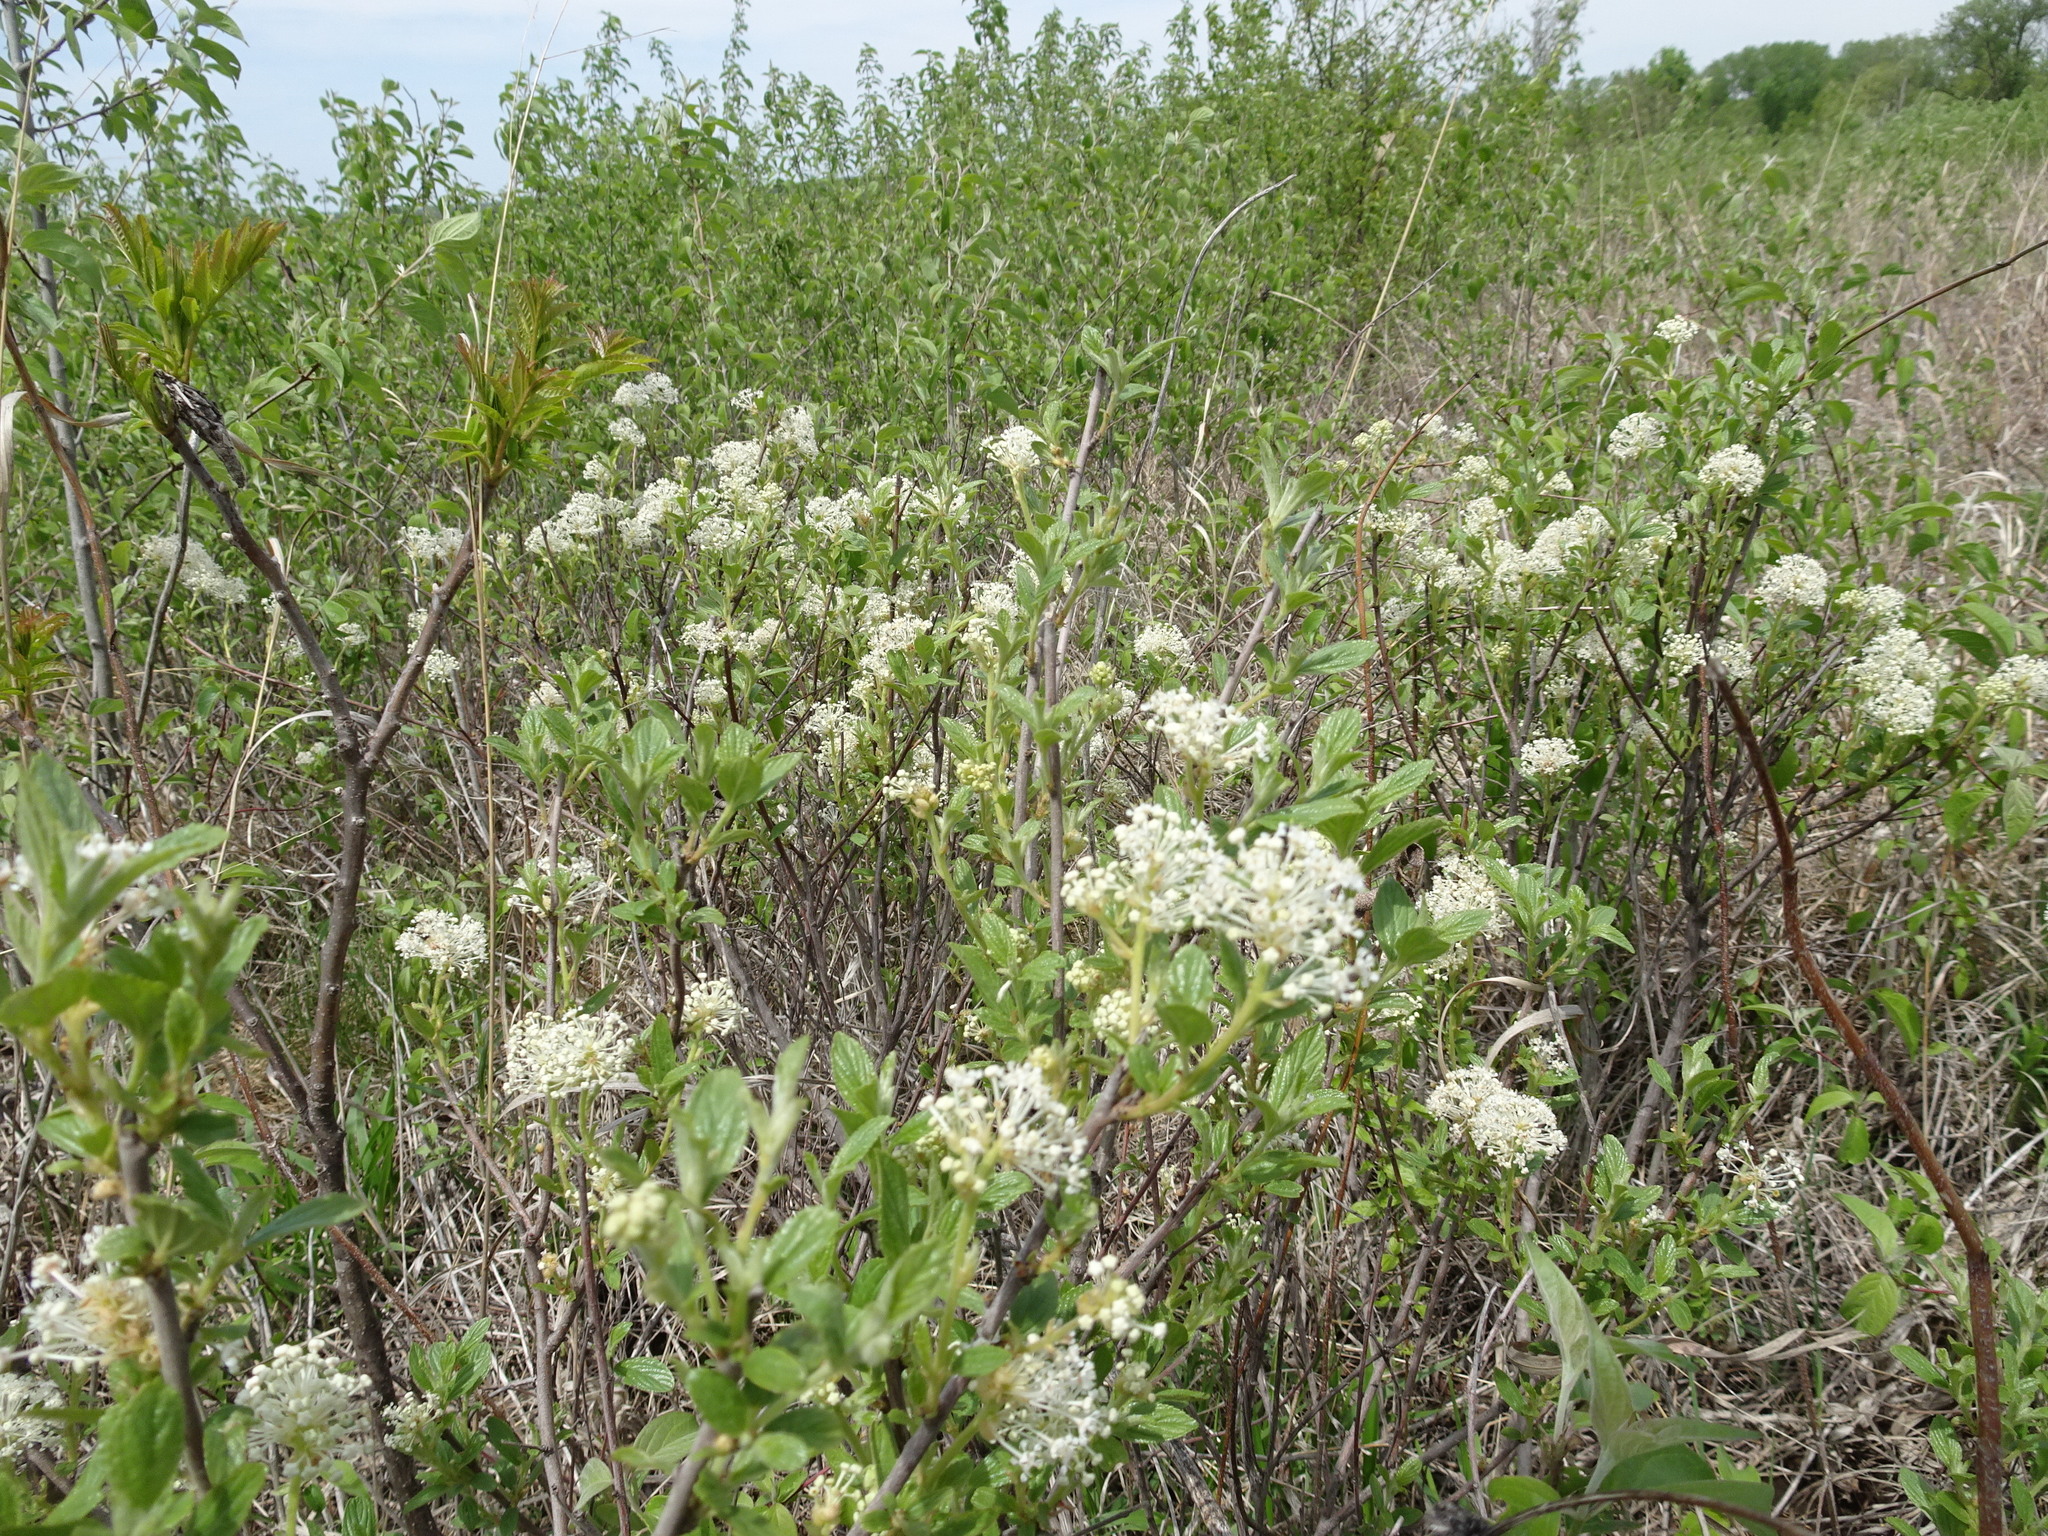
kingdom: Plantae
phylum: Tracheophyta
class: Magnoliopsida
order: Rosales
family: Rhamnaceae
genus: Ceanothus
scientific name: Ceanothus herbaceus
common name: Inland ceanothus
